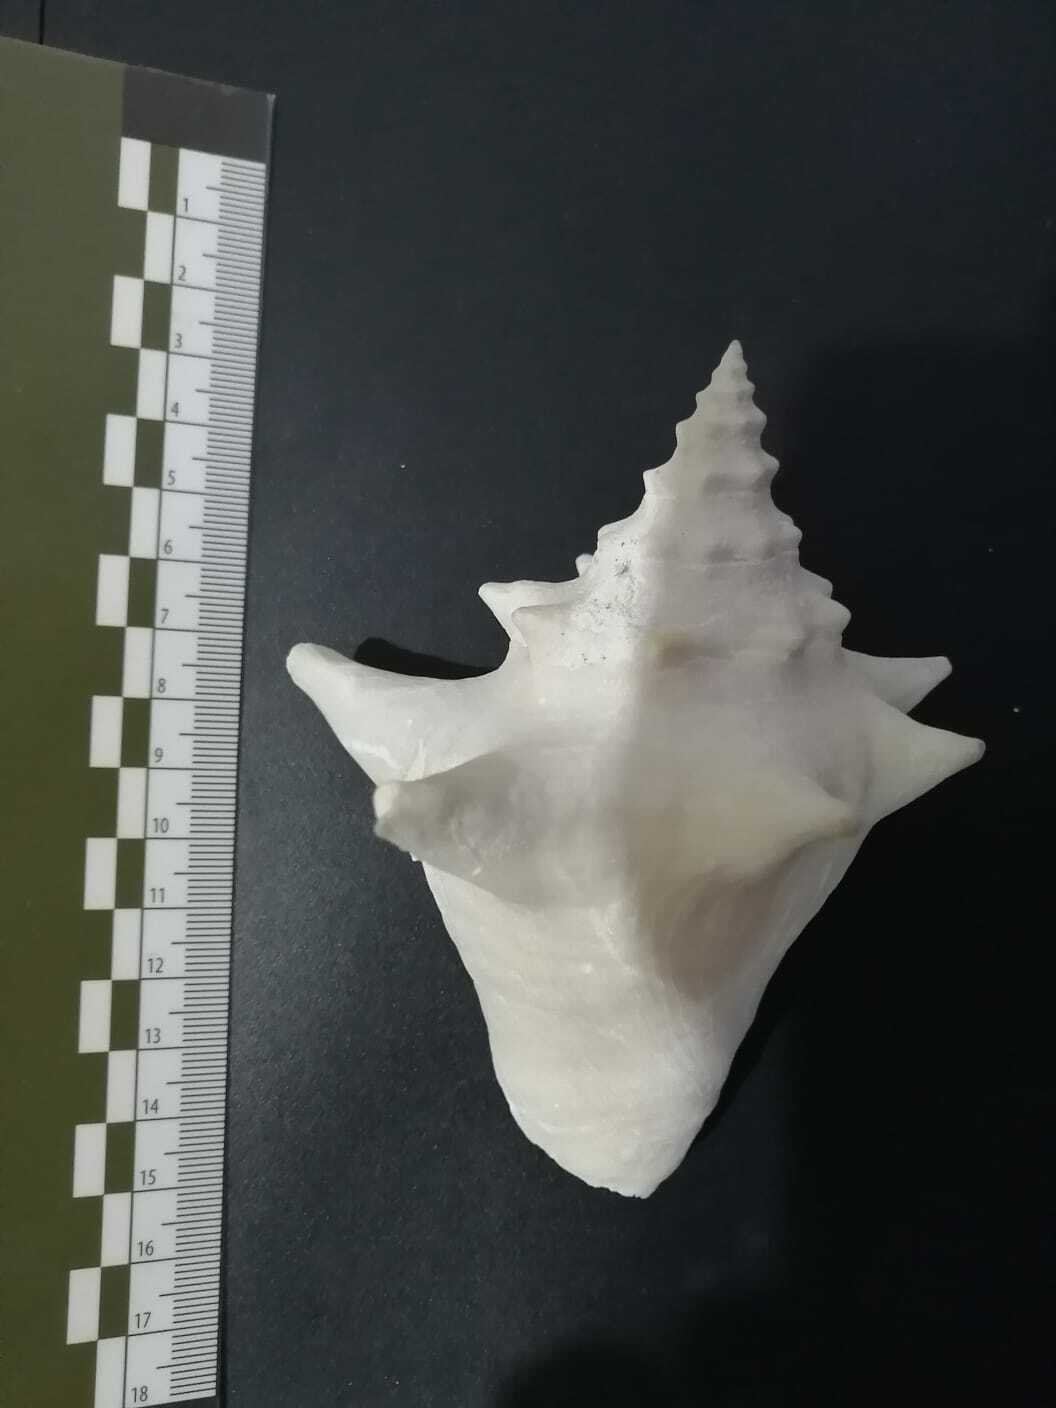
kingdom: Animalia
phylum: Mollusca
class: Gastropoda
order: Littorinimorpha
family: Strombidae
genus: Aliger
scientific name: Aliger gigas
